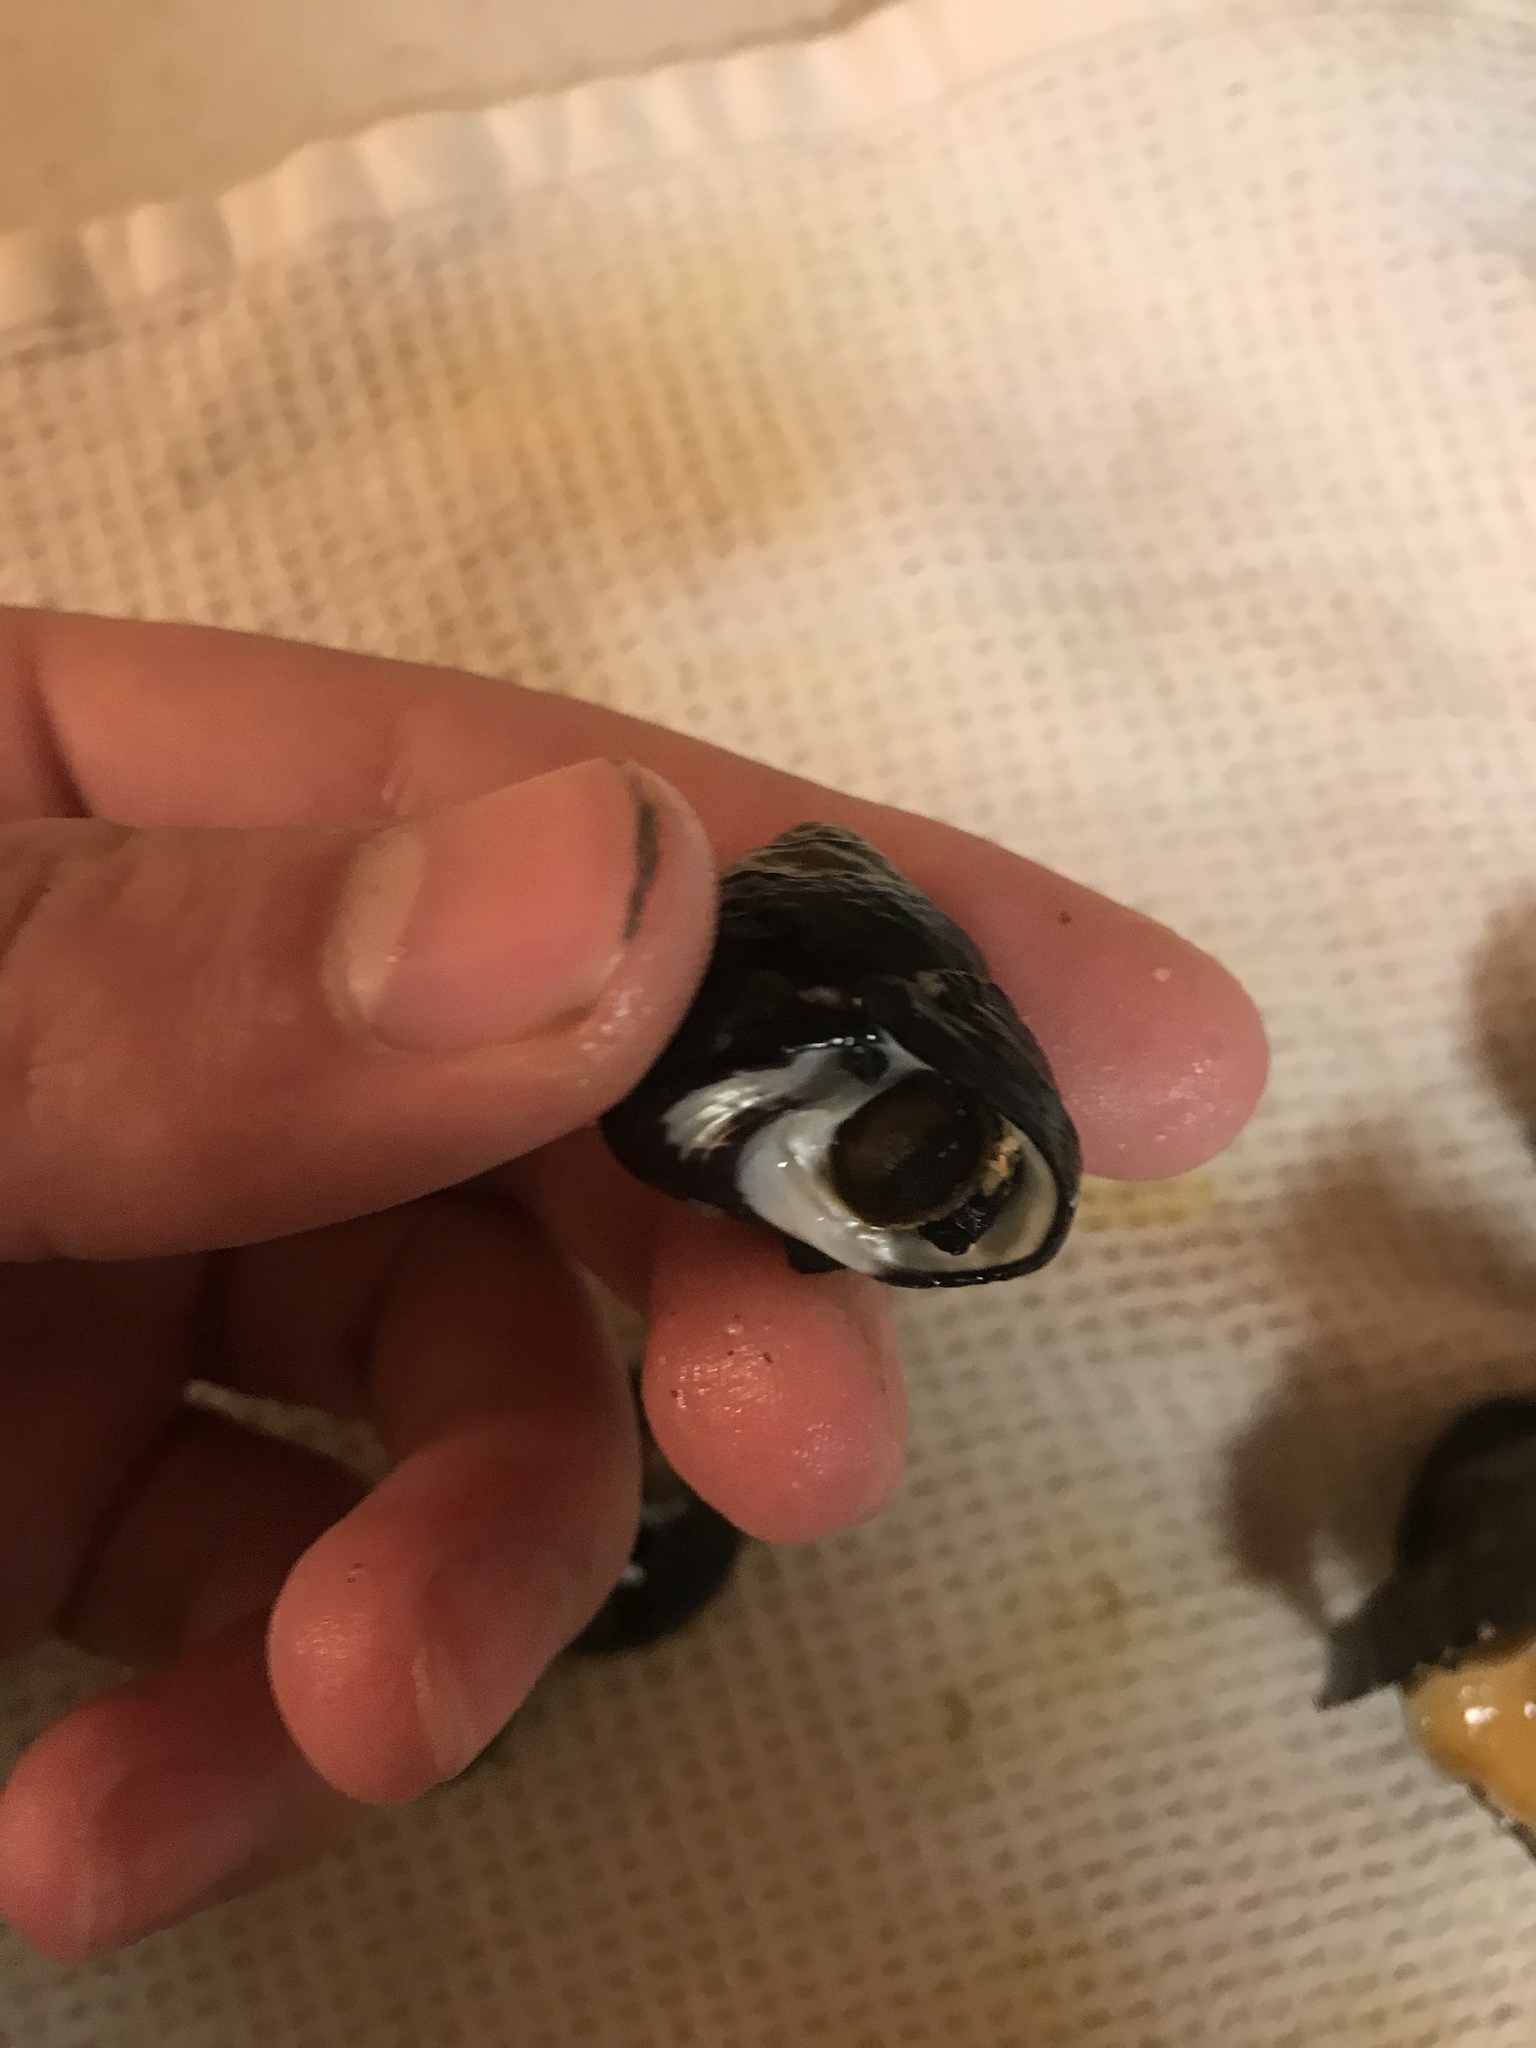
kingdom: Animalia
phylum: Mollusca
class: Gastropoda
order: Trochida
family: Tegulidae
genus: Tegula
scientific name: Tegula funebralis
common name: Black tegula
